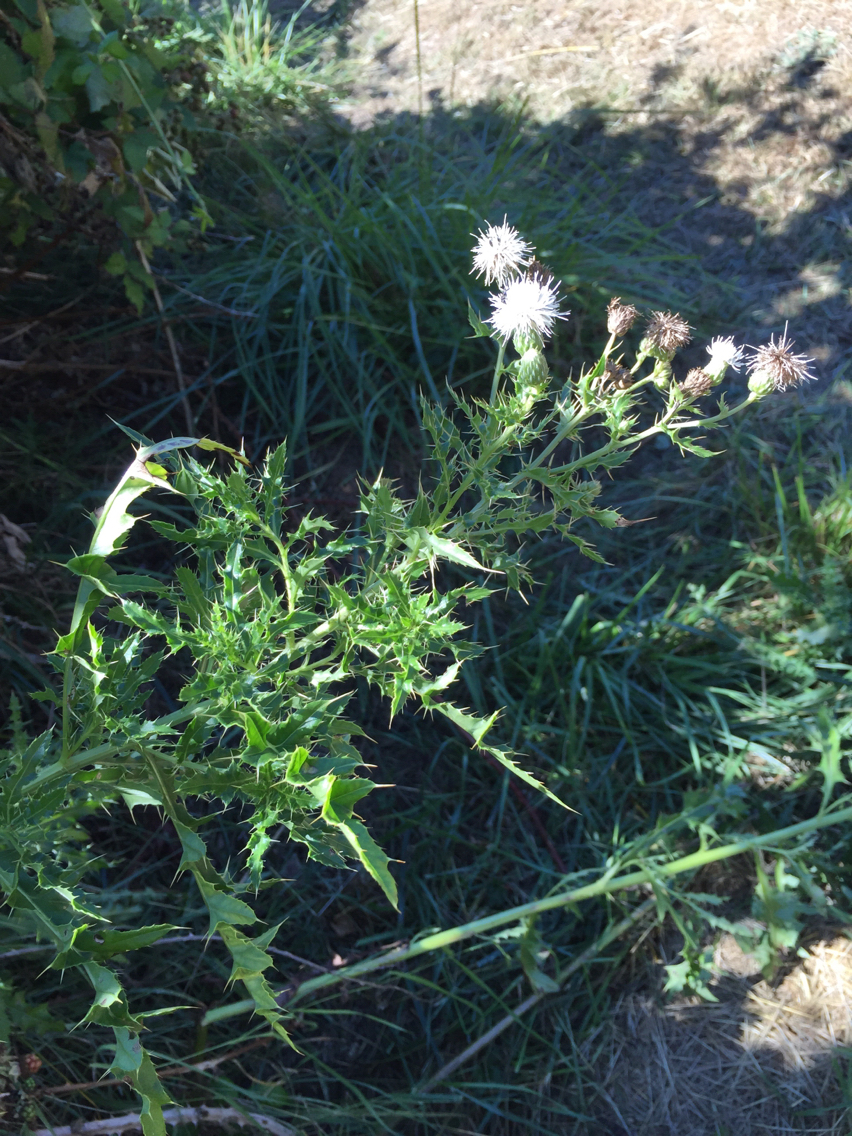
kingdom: Plantae
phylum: Tracheophyta
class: Magnoliopsida
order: Asterales
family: Asteraceae
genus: Cirsium
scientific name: Cirsium arvense
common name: Creeping thistle
